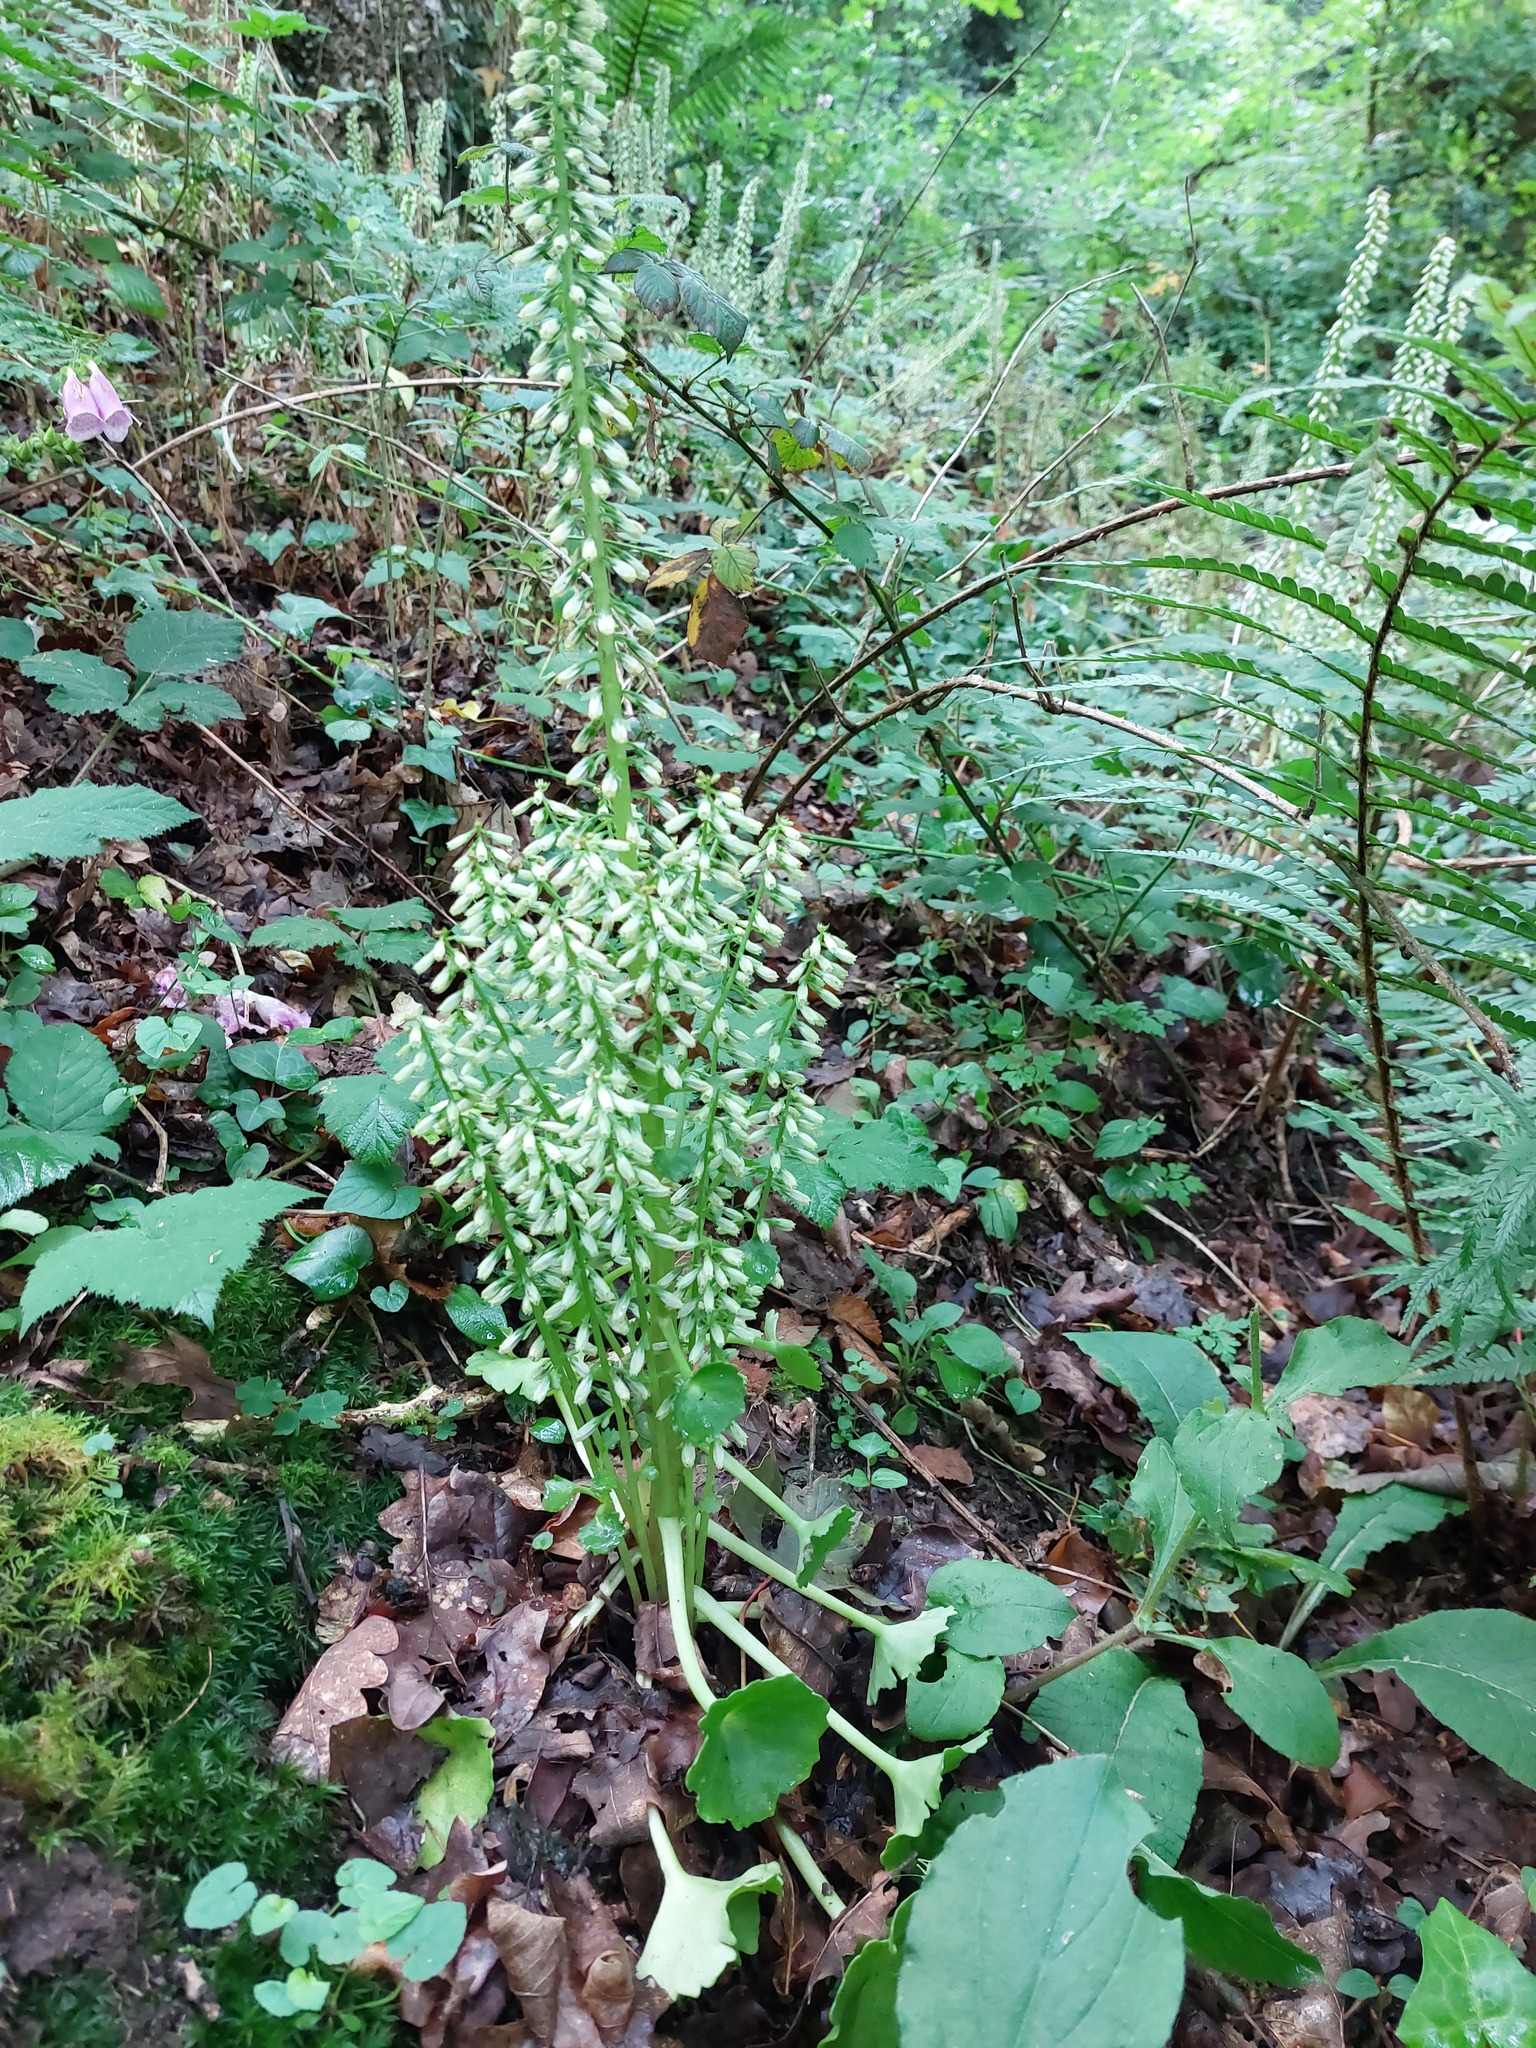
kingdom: Plantae
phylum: Tracheophyta
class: Magnoliopsida
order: Saxifragales
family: Crassulaceae
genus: Umbilicus
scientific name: Umbilicus rupestris
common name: Navelwort
